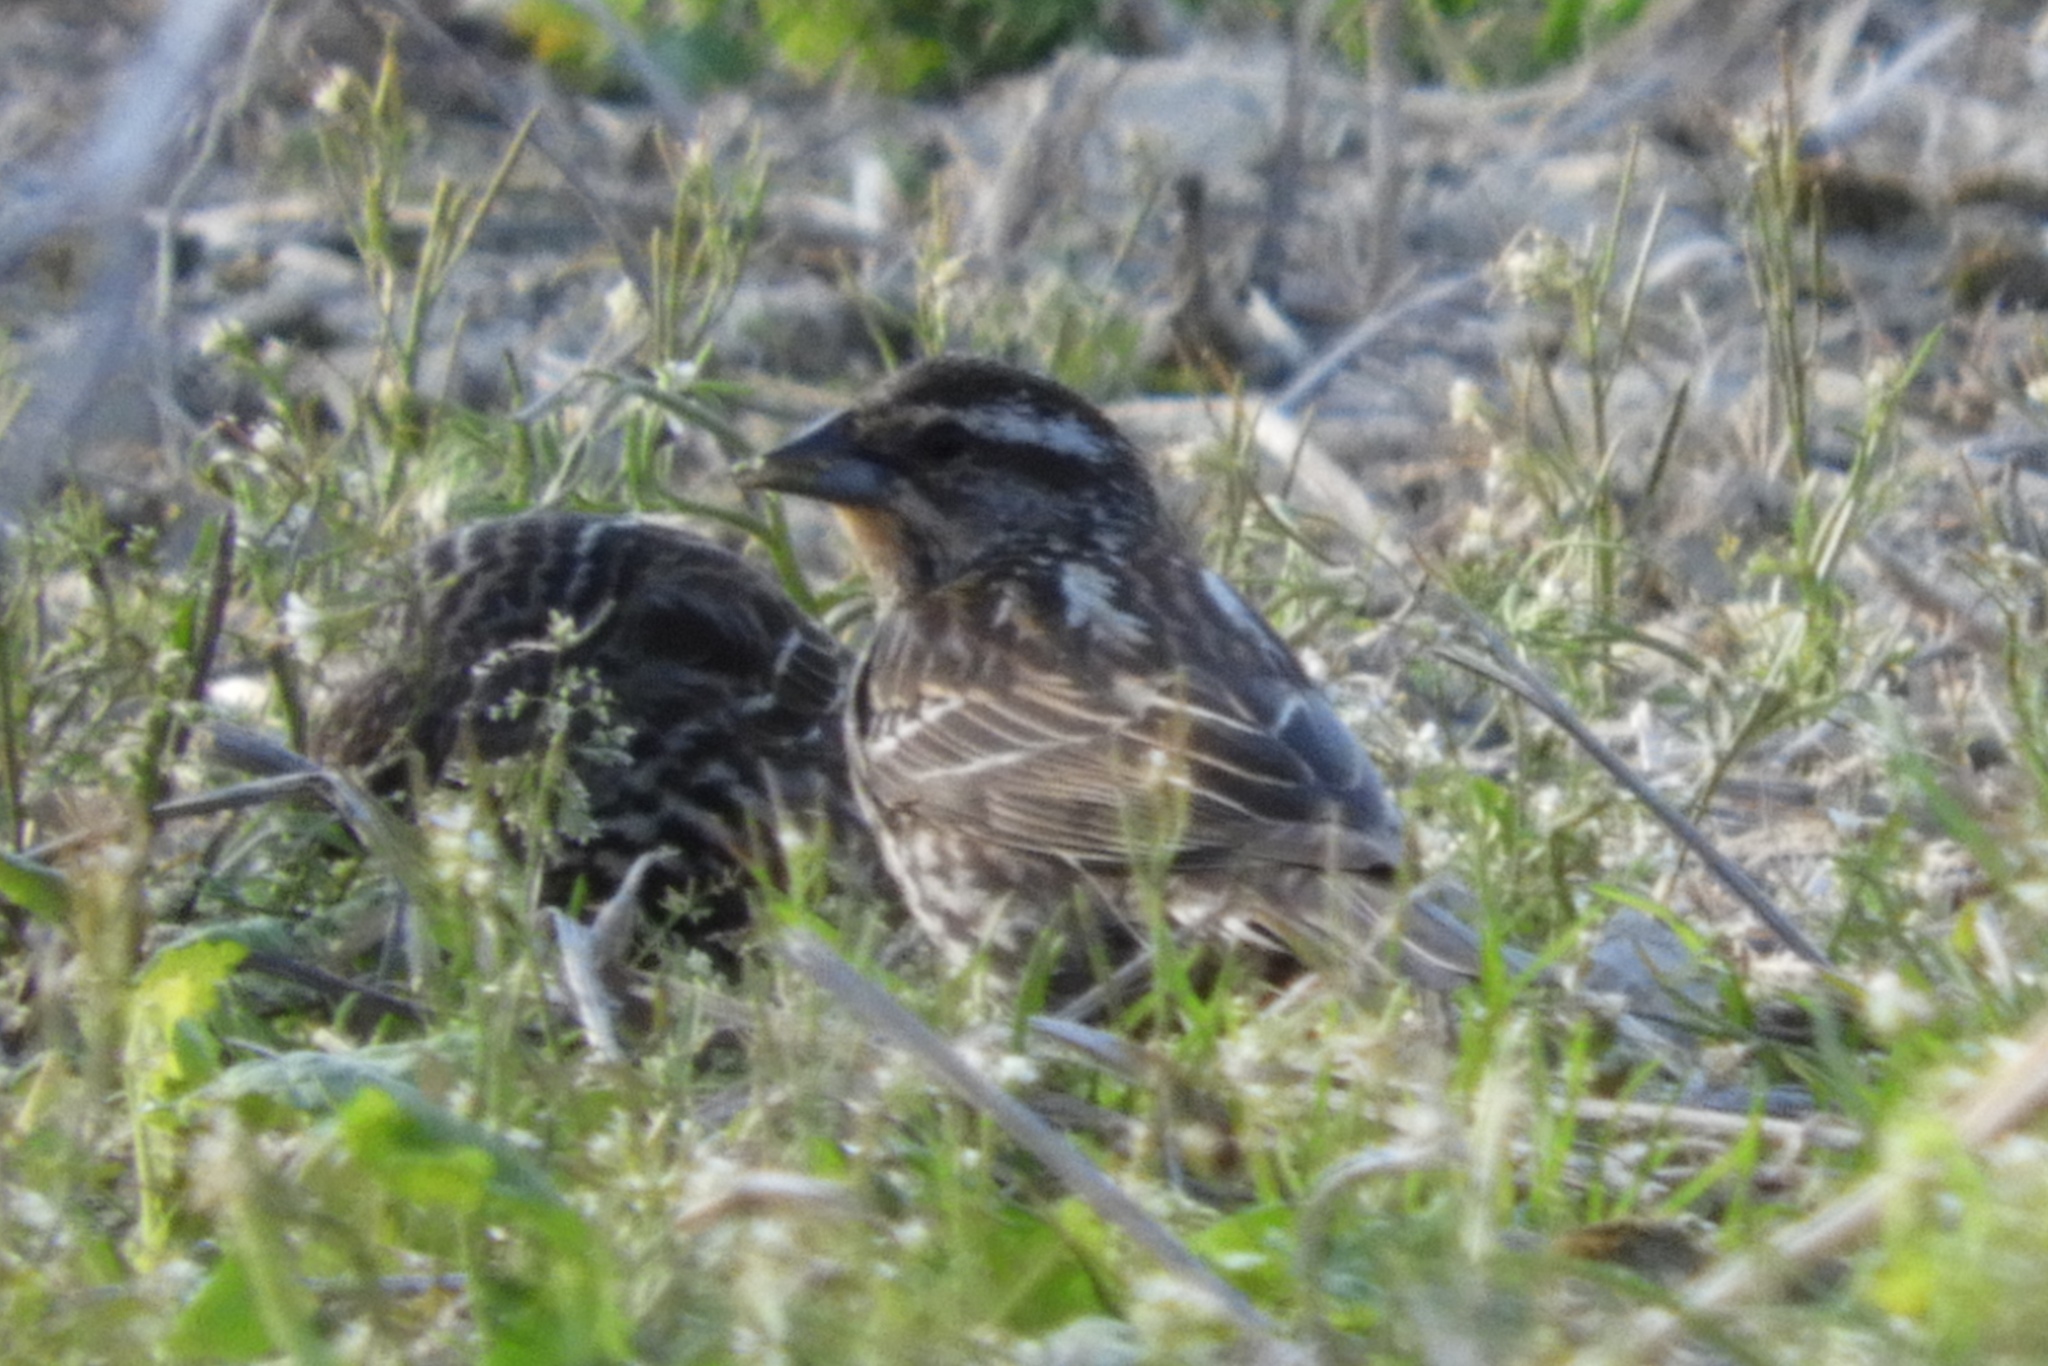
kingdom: Animalia
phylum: Chordata
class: Aves
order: Passeriformes
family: Icteridae
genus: Agelaius
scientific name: Agelaius phoeniceus
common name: Red-winged blackbird
